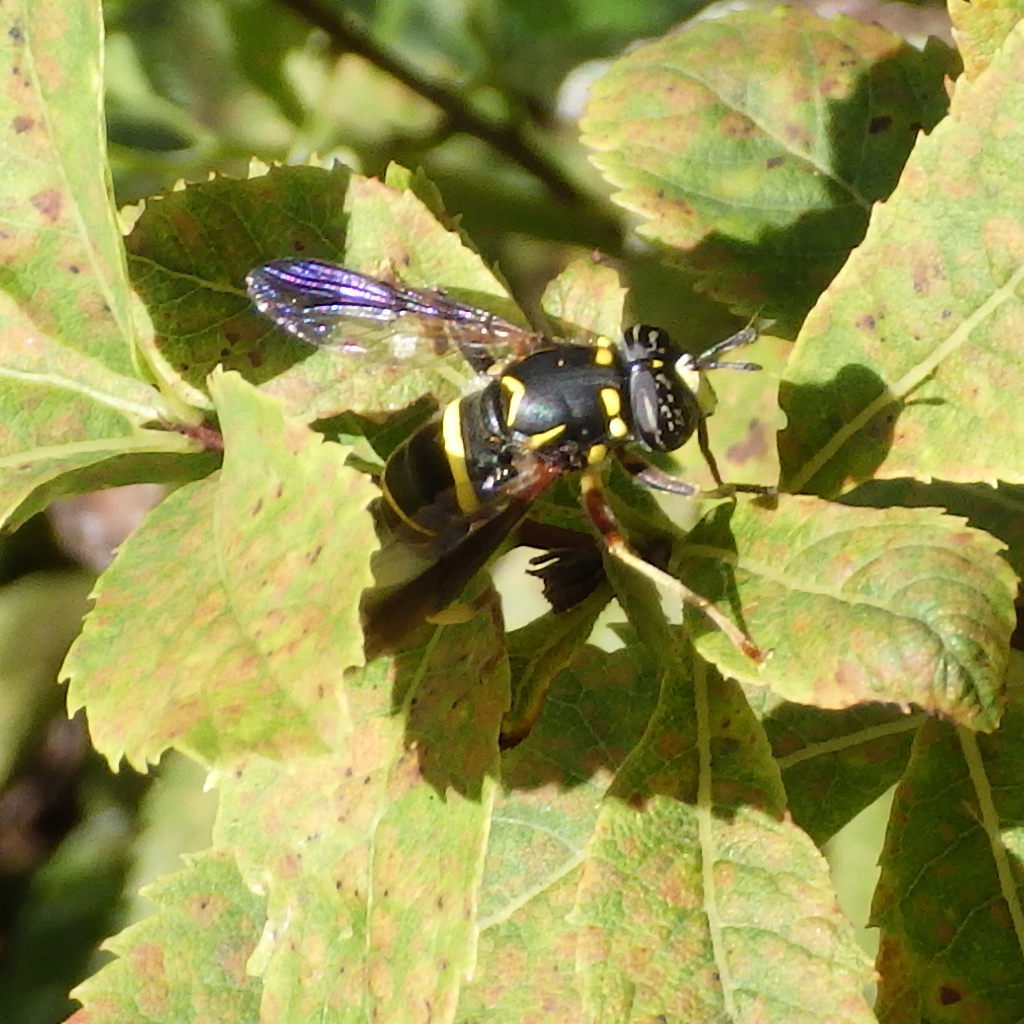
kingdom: Animalia
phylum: Arthropoda
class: Insecta
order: Diptera
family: Syrphidae
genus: Spilomyia
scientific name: Spilomyia sayi
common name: Four-lined hornet fly
